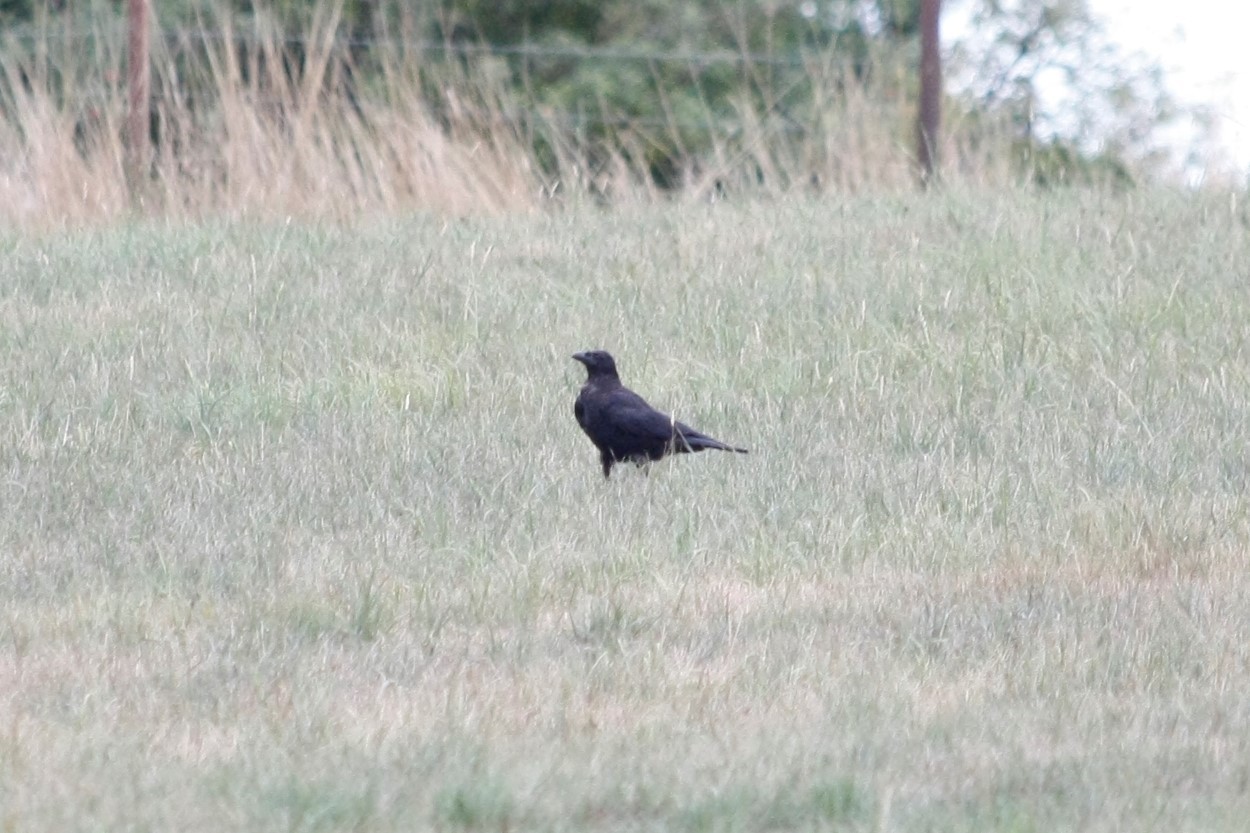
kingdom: Animalia
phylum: Chordata
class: Aves
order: Passeriformes
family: Corvidae
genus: Corvus
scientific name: Corvus corone
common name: Carrion crow
